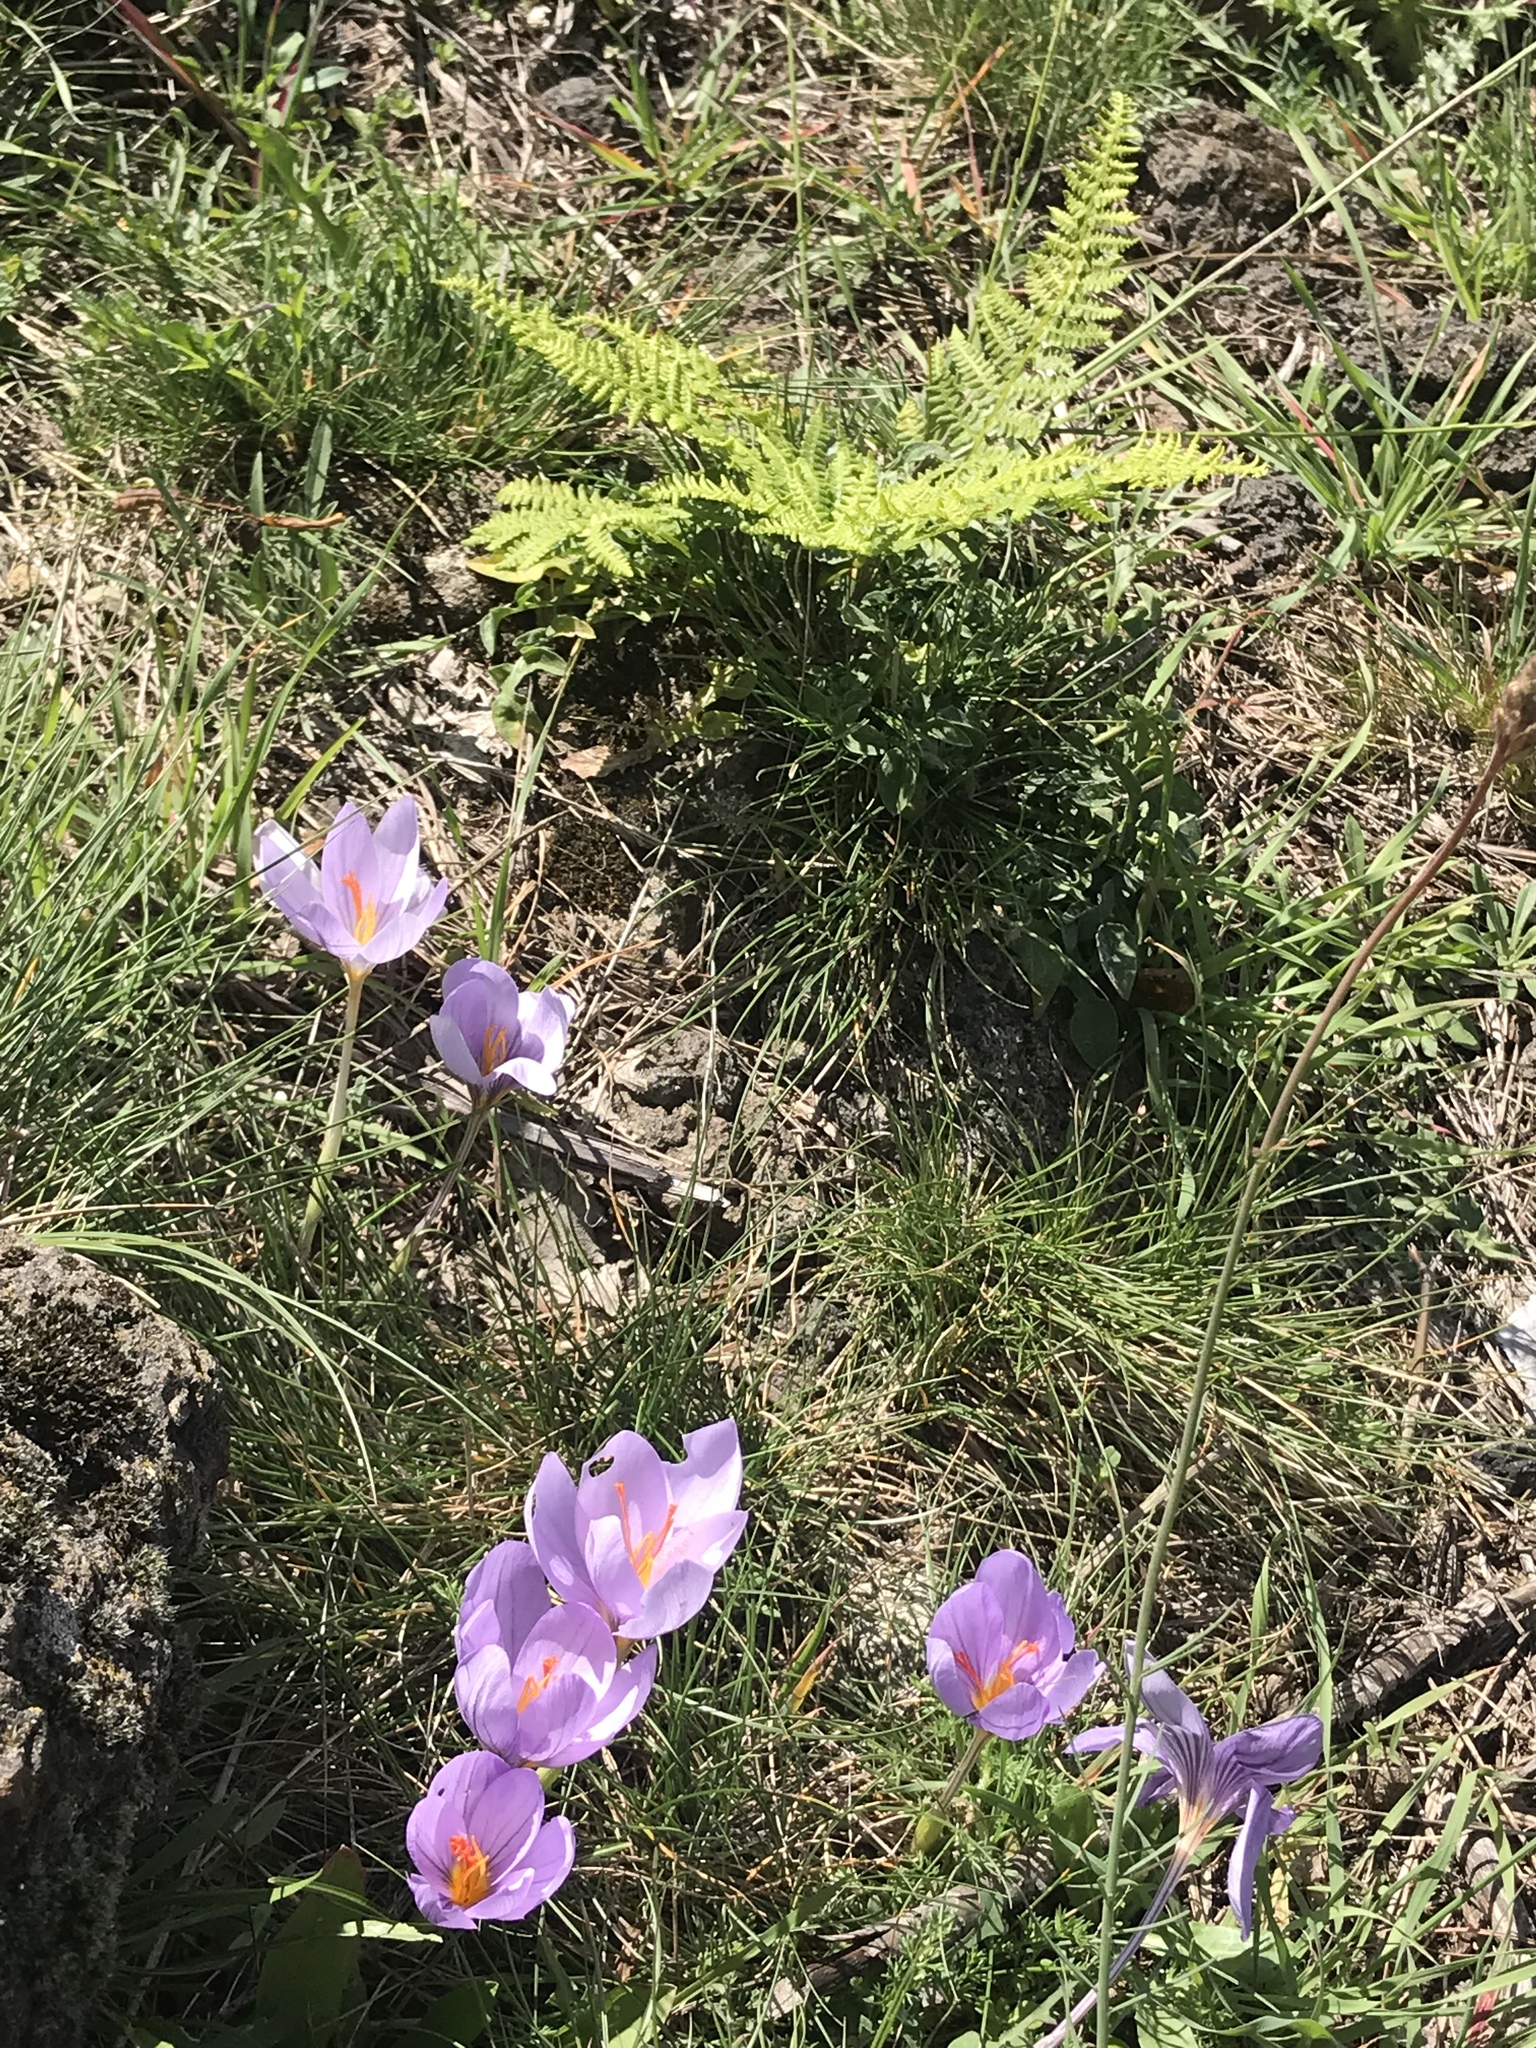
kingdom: Plantae
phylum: Tracheophyta
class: Liliopsida
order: Asparagales
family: Iridaceae
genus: Crocus
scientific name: Crocus longiflorus
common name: Italian crocus
